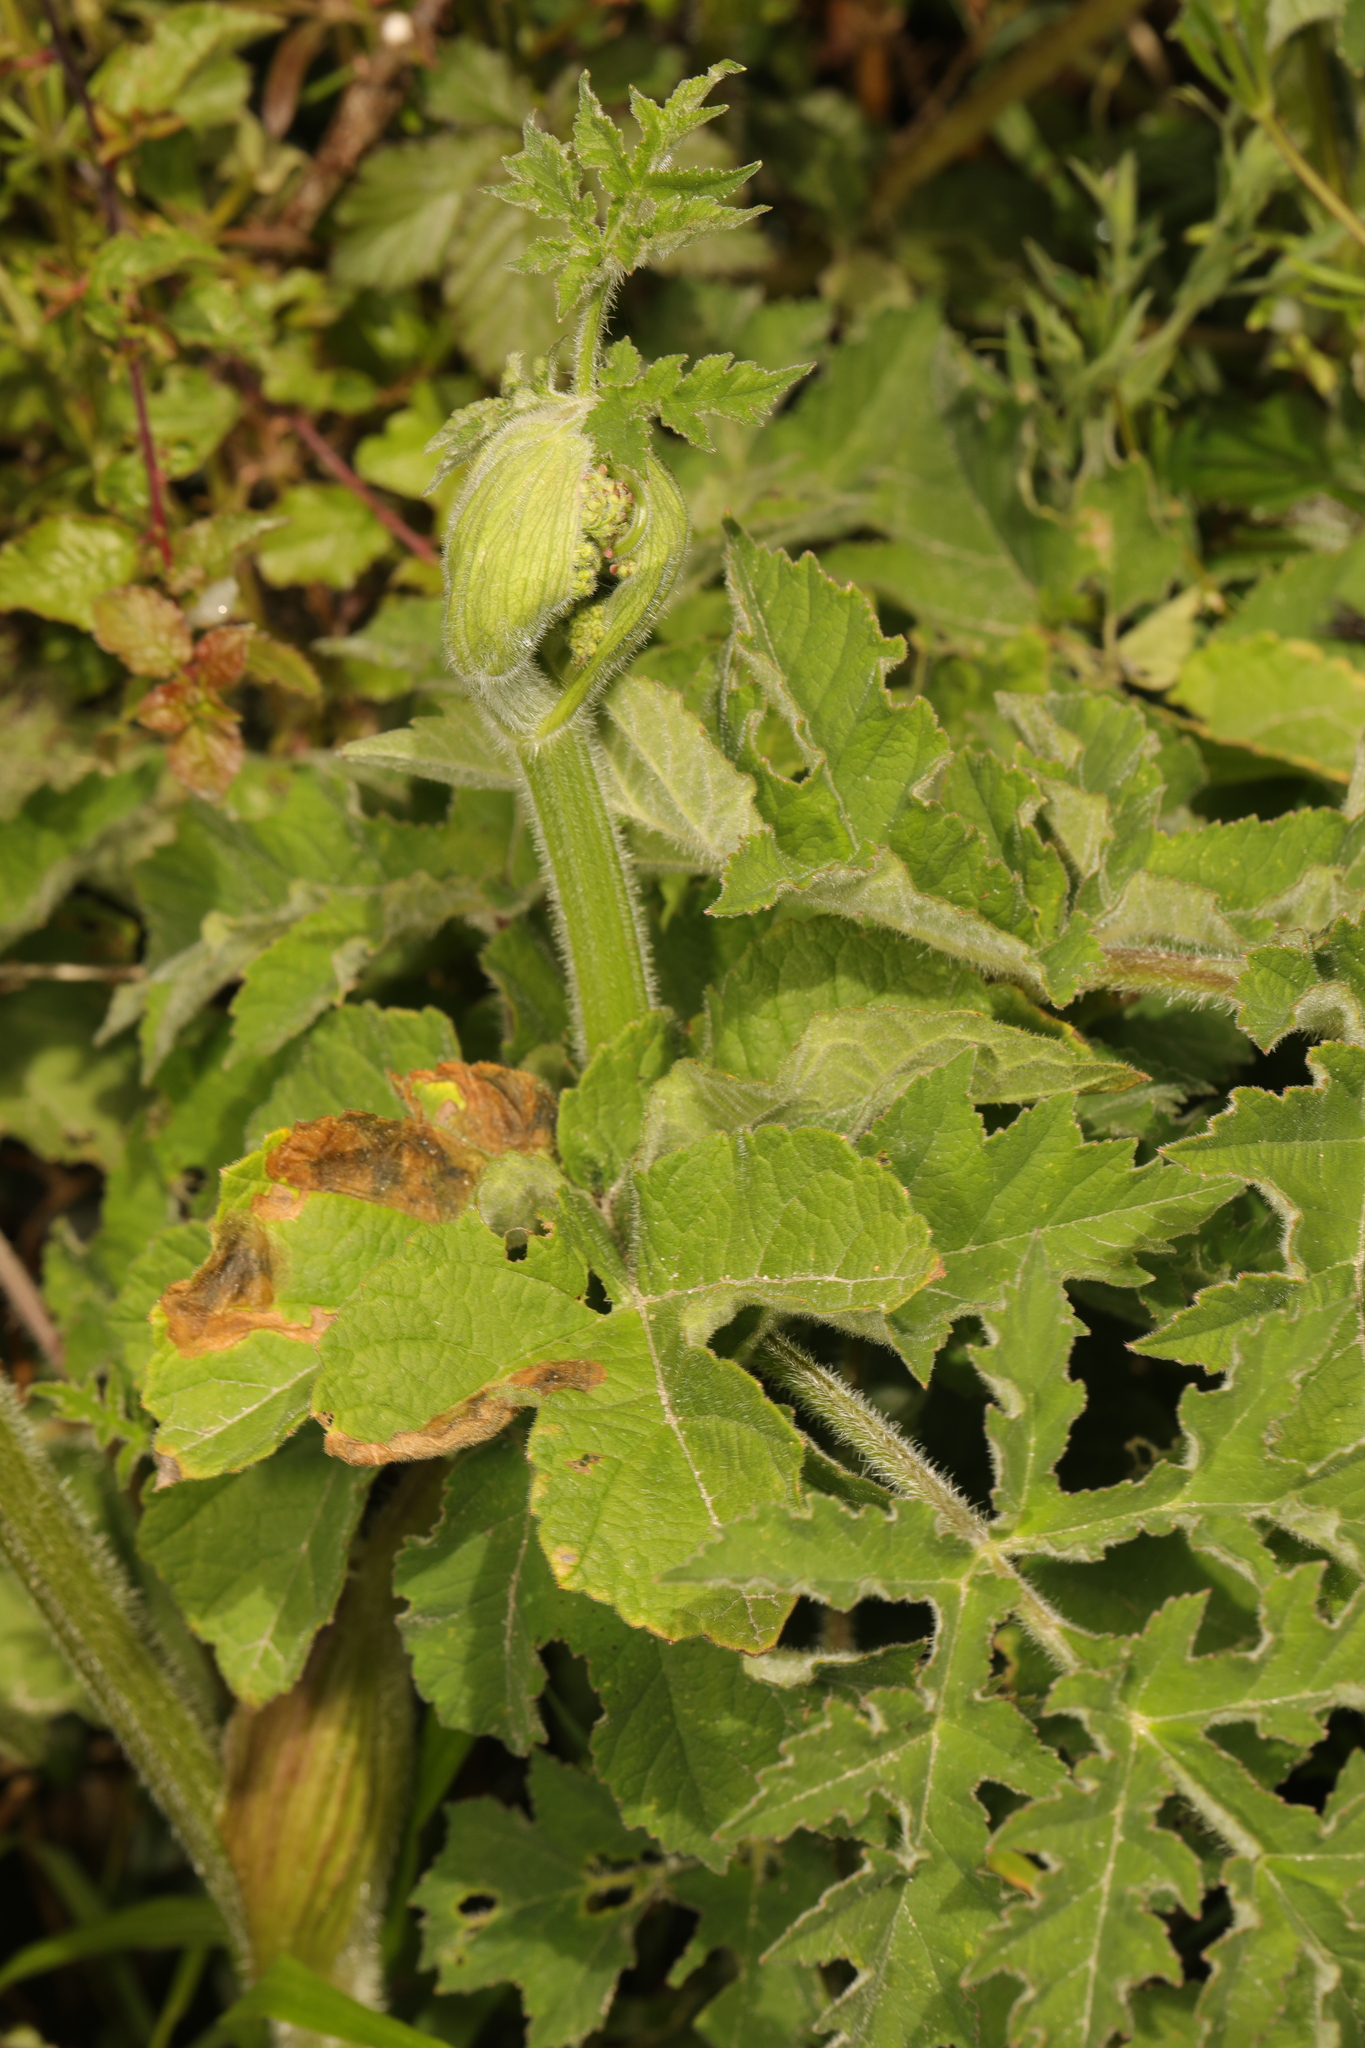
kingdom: Plantae
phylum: Tracheophyta
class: Magnoliopsida
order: Apiales
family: Apiaceae
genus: Heracleum
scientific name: Heracleum sphondylium
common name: Hogweed
